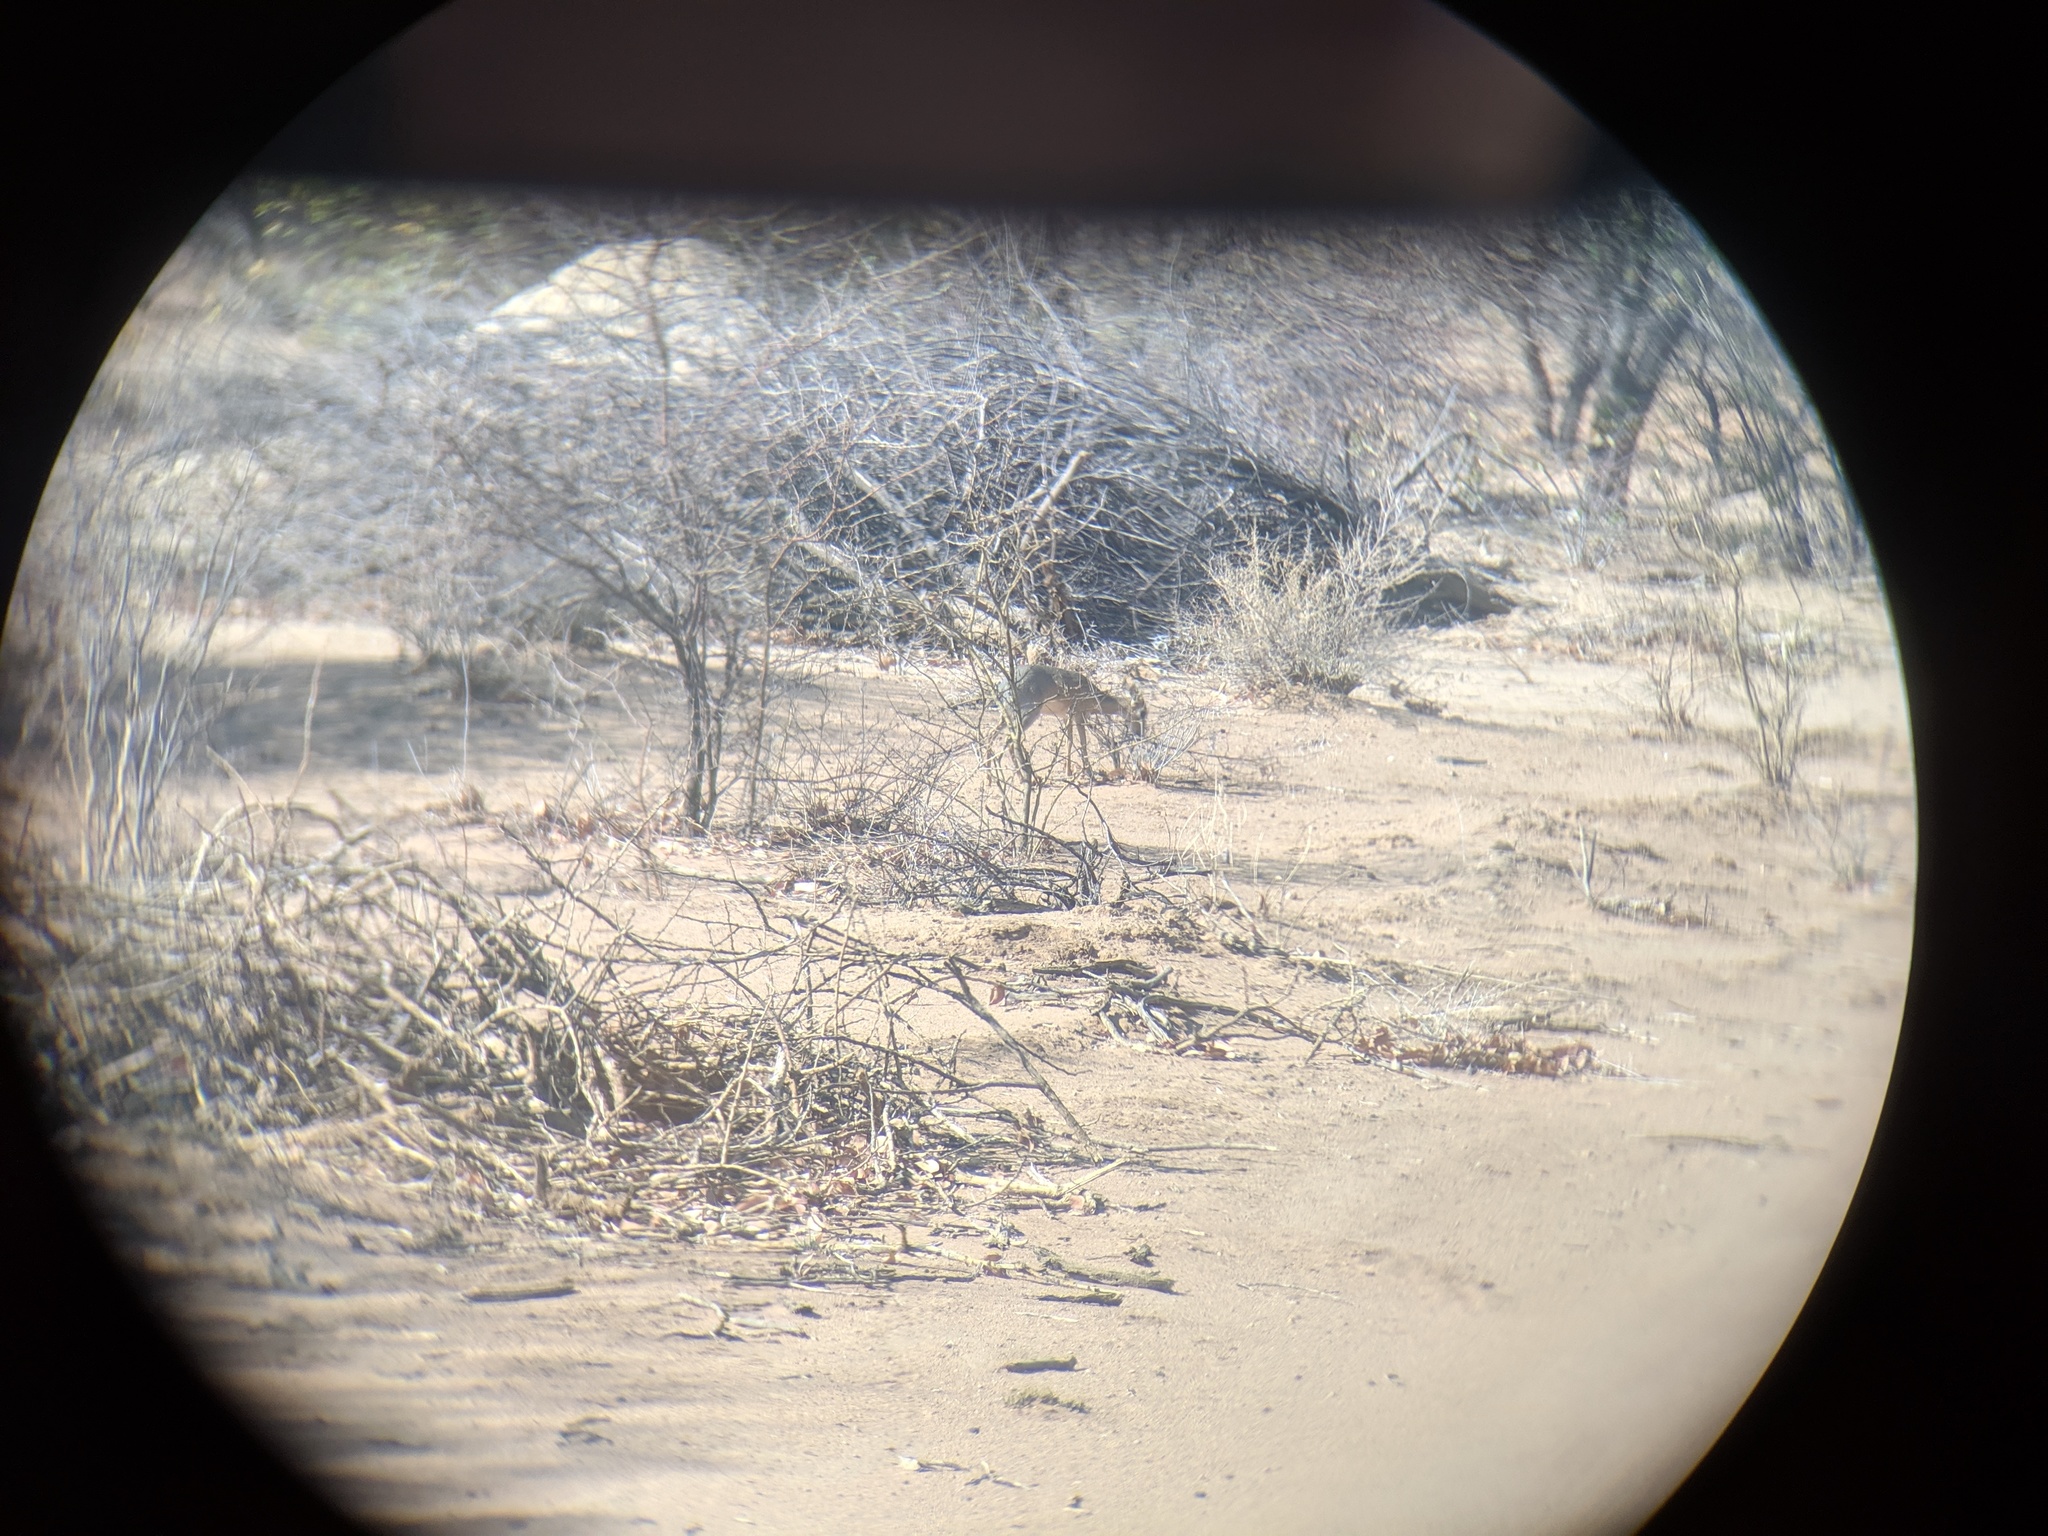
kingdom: Animalia
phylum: Chordata
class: Mammalia
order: Artiodactyla
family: Bovidae
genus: Madoqua
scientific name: Madoqua kirkii
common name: Kirk's dik-dik
